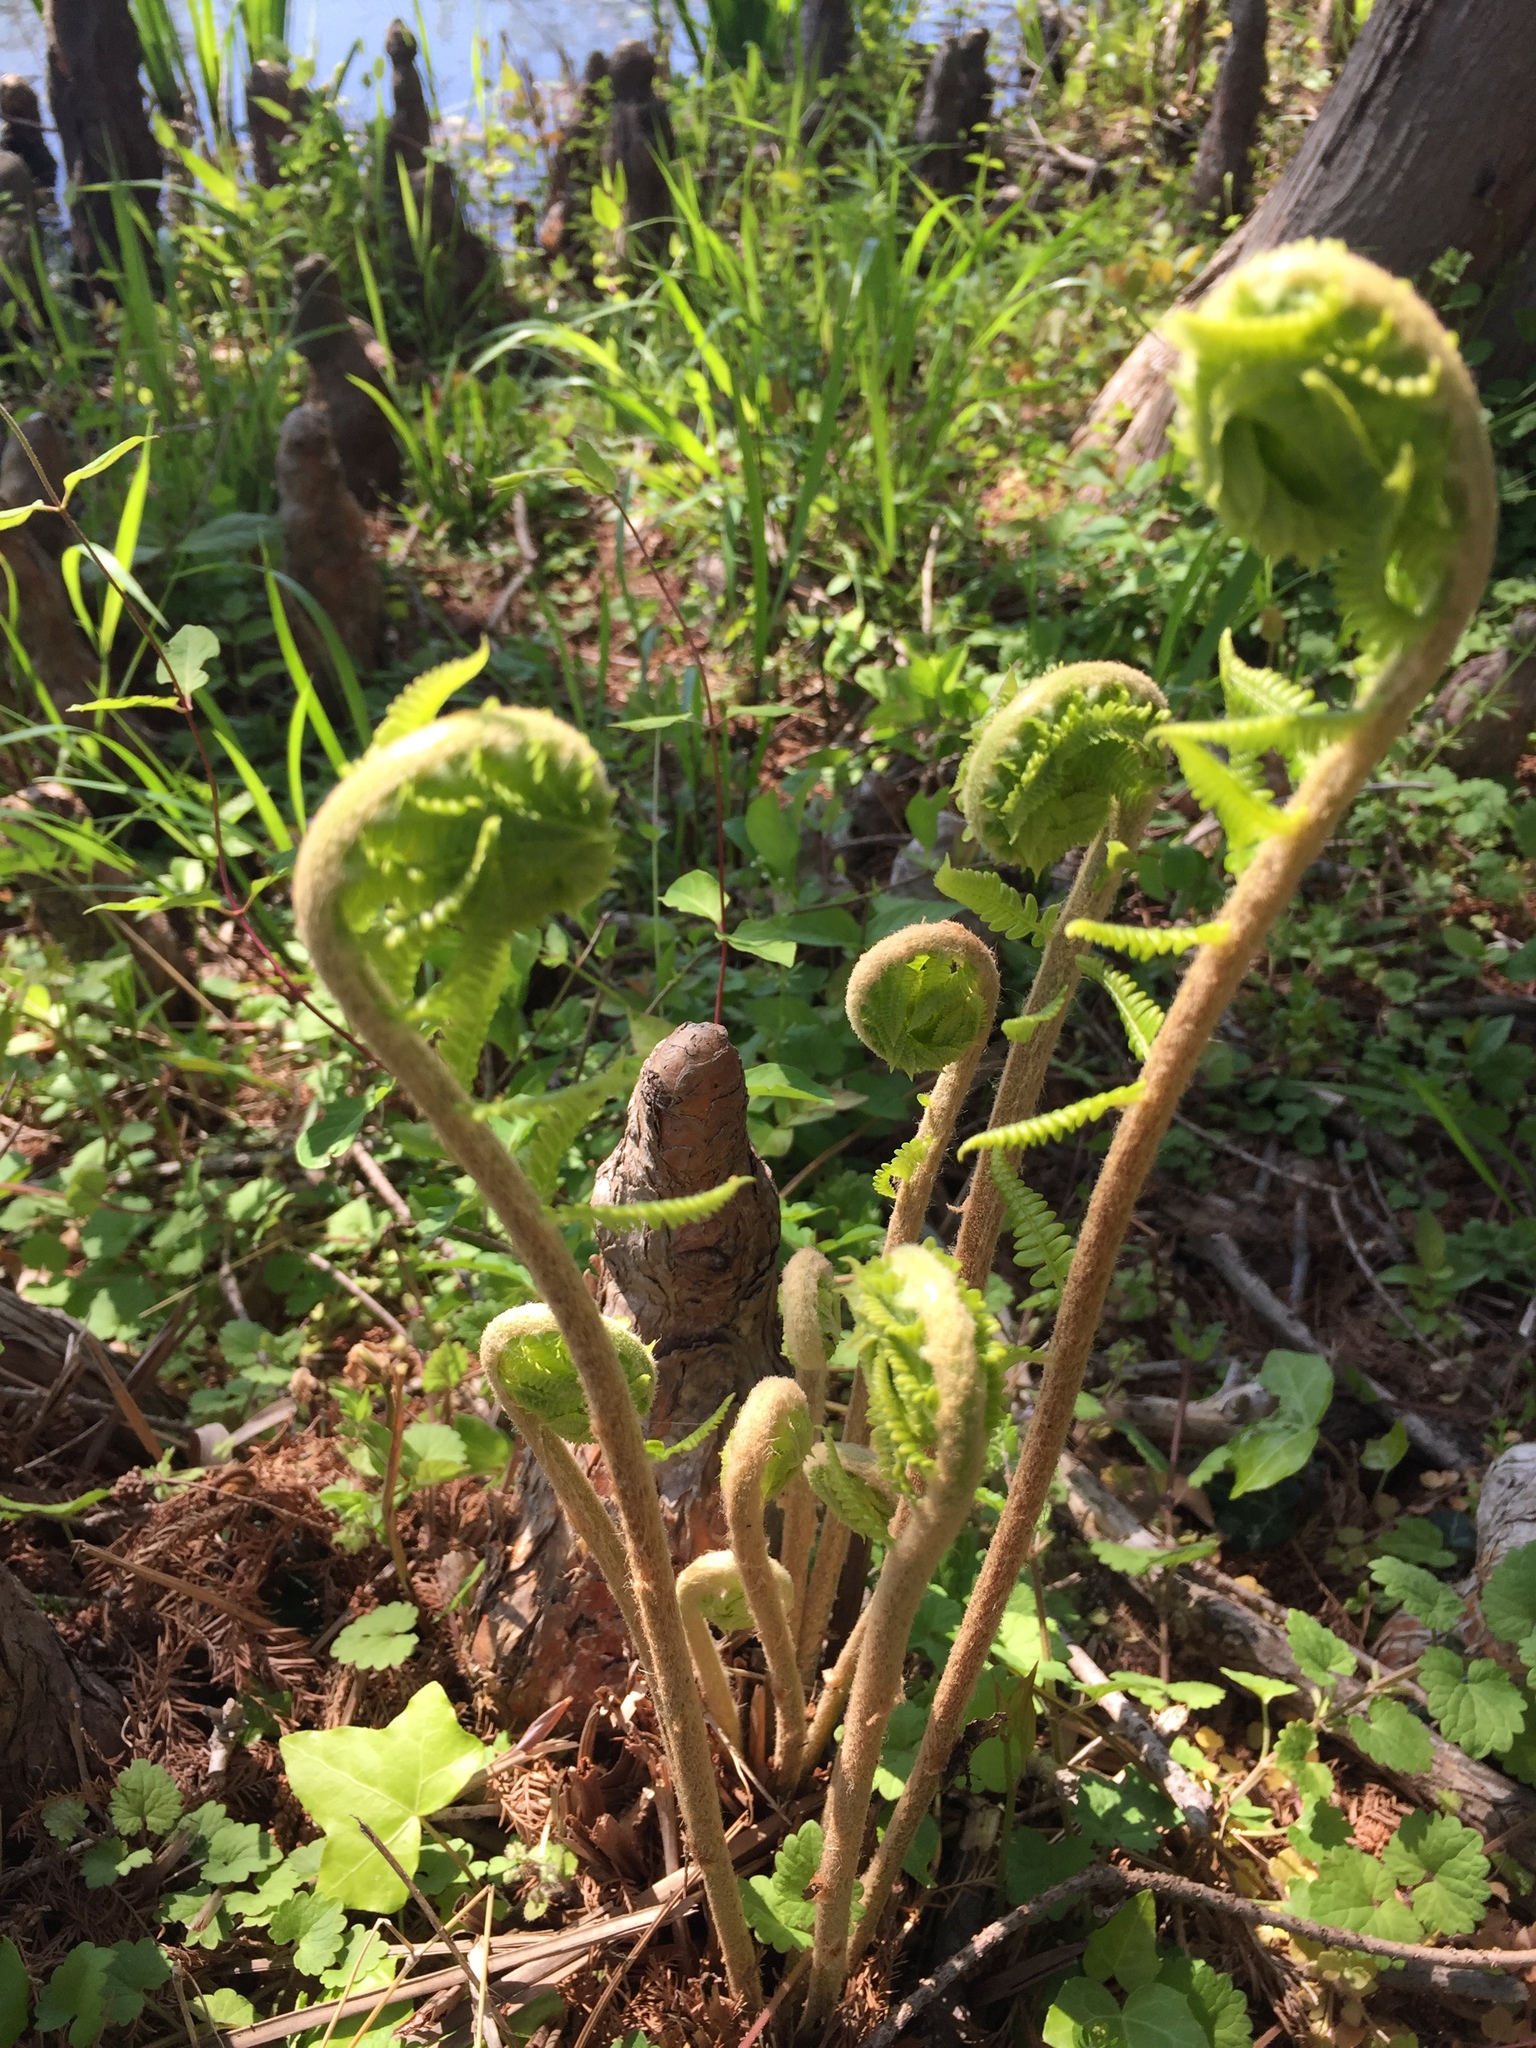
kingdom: Plantae
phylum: Tracheophyta
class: Polypodiopsida
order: Osmundales
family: Osmundaceae
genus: Osmundastrum
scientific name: Osmundastrum cinnamomeum
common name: Cinnamon fern
